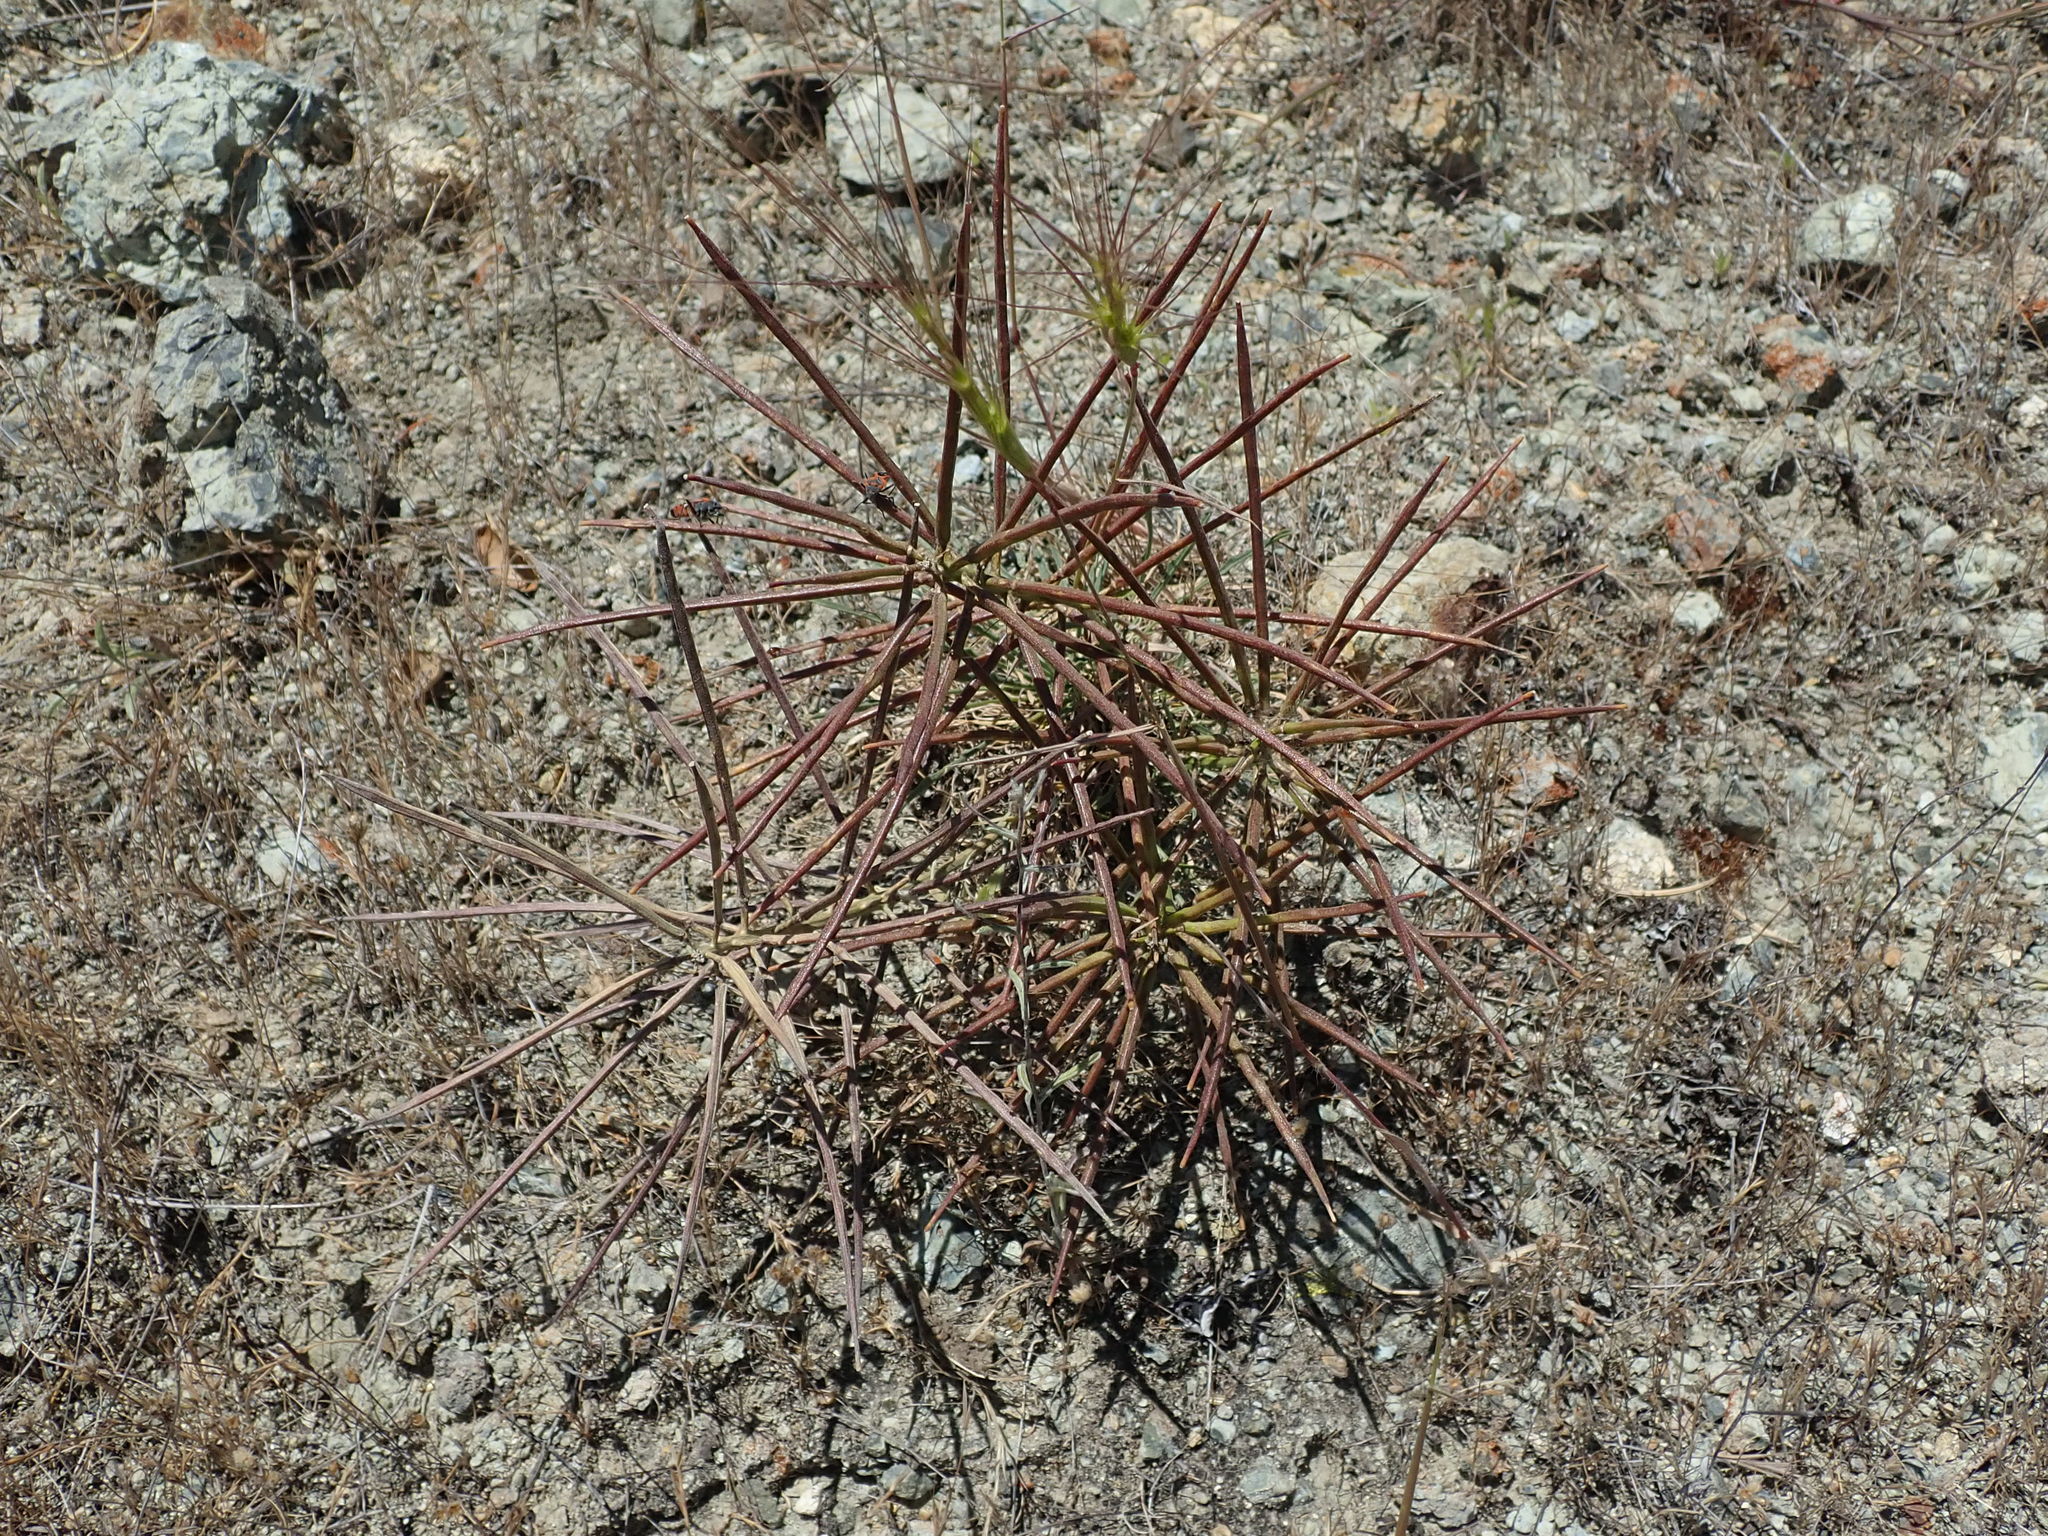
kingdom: Plantae
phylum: Tracheophyta
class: Magnoliopsida
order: Brassicales
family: Brassicaceae
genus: Erysimum
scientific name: Erysimum franciscanum
